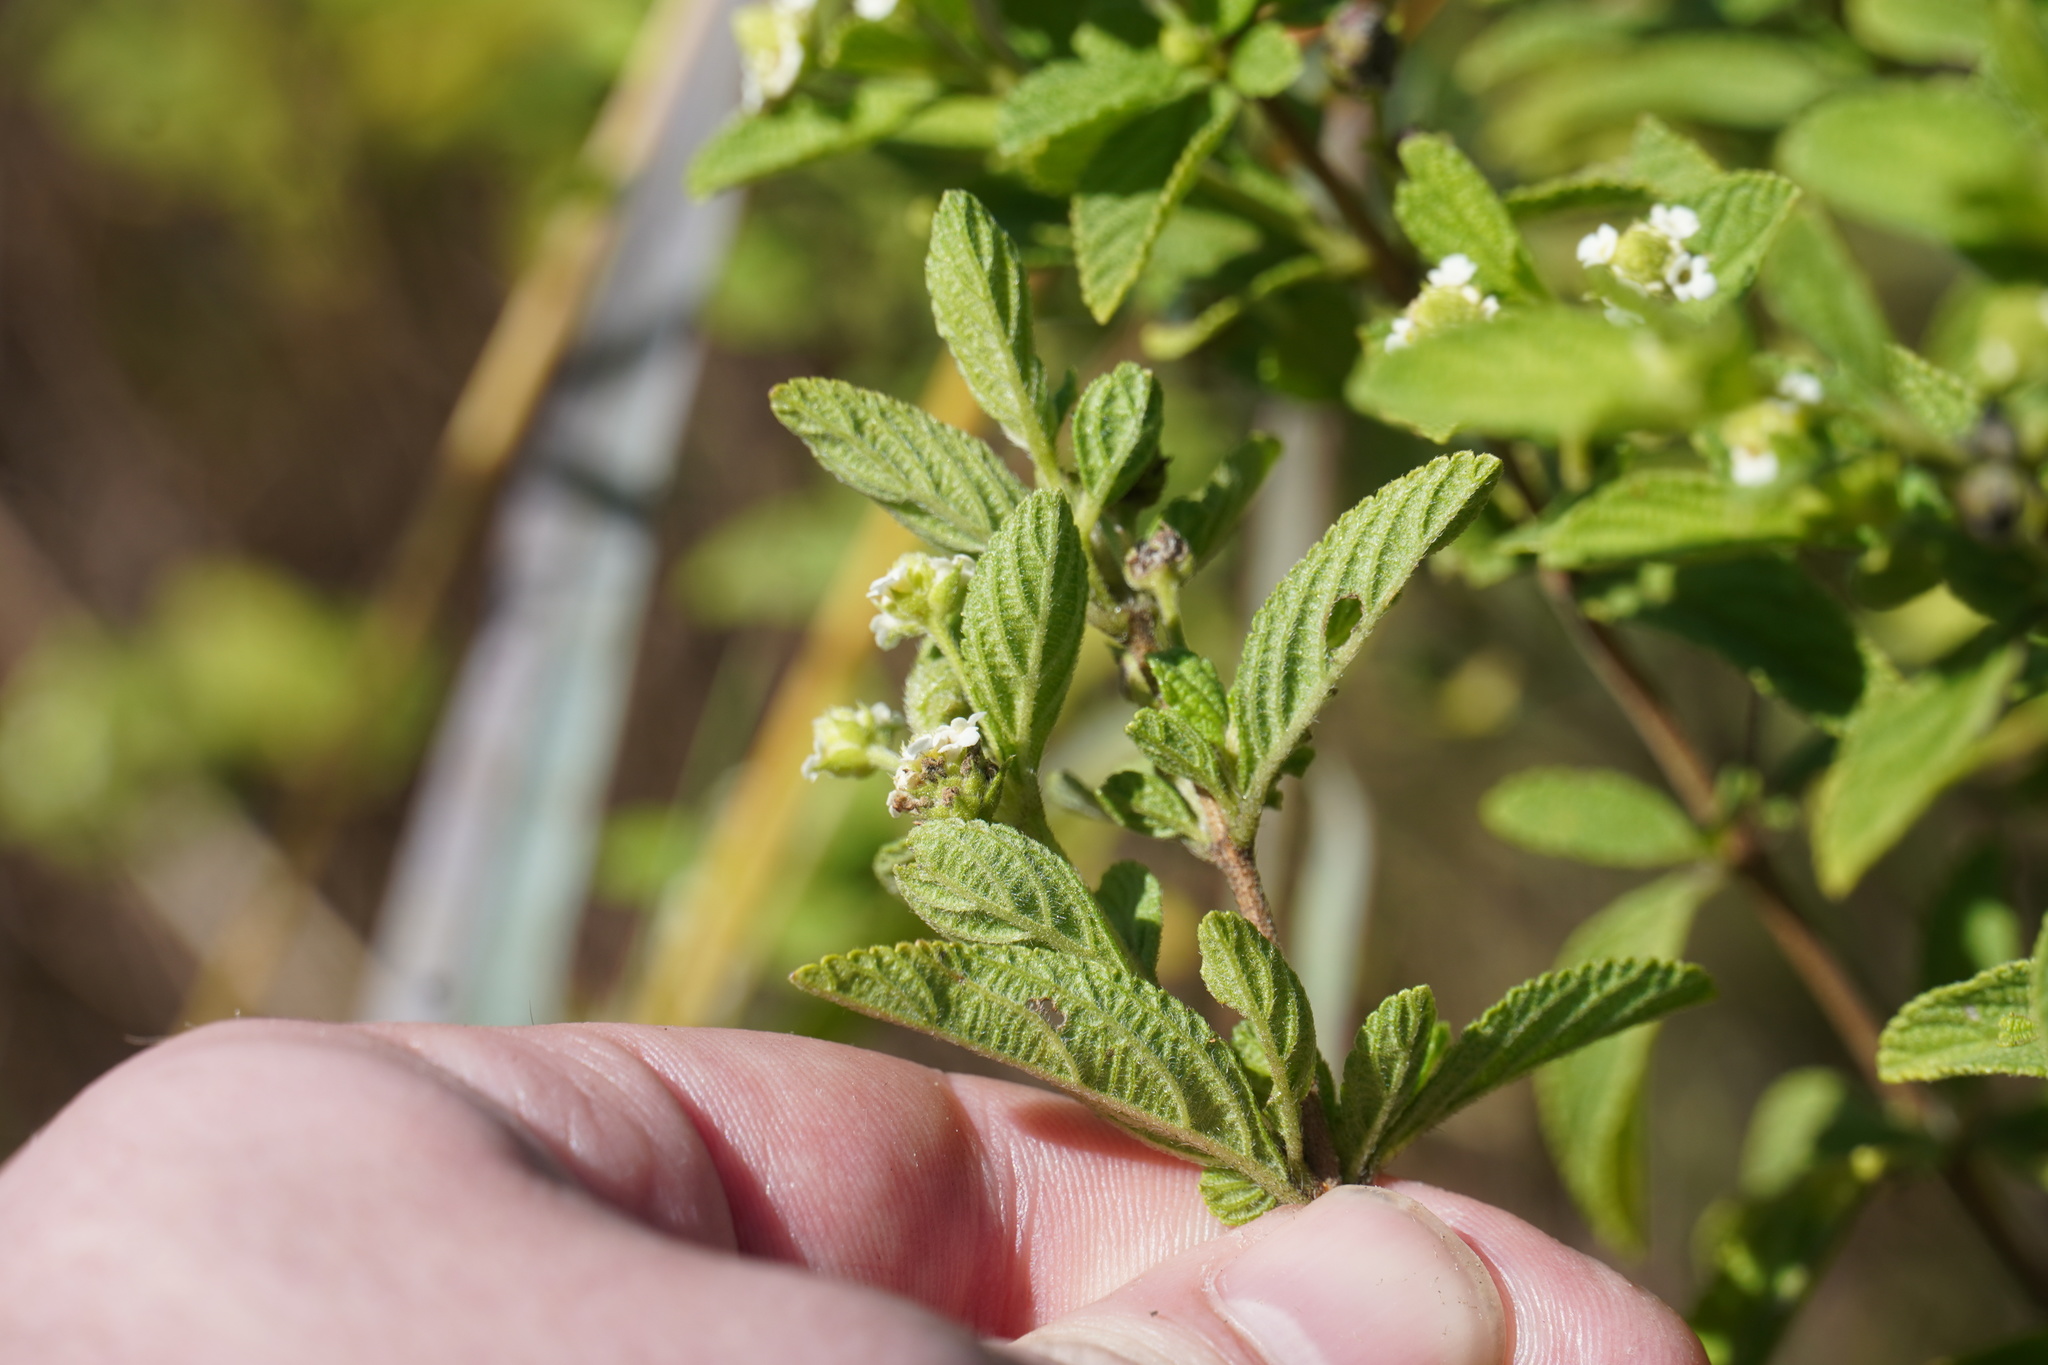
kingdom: Plantae
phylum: Tracheophyta
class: Magnoliopsida
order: Lamiales
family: Verbenaceae
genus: Lippia
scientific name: Lippia javanica
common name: Lemonbush
